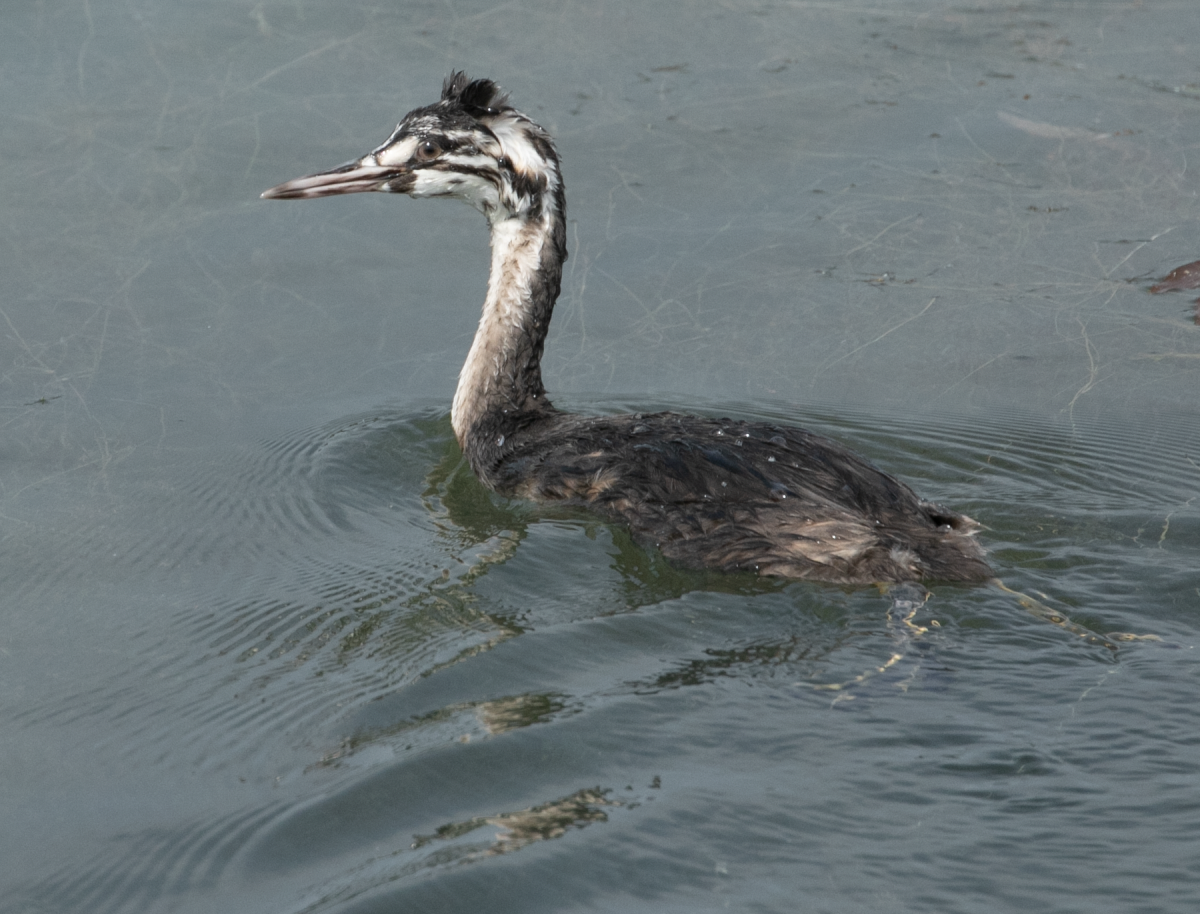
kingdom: Animalia
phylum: Chordata
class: Aves
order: Podicipediformes
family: Podicipedidae
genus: Podiceps
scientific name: Podiceps cristatus
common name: Great crested grebe
